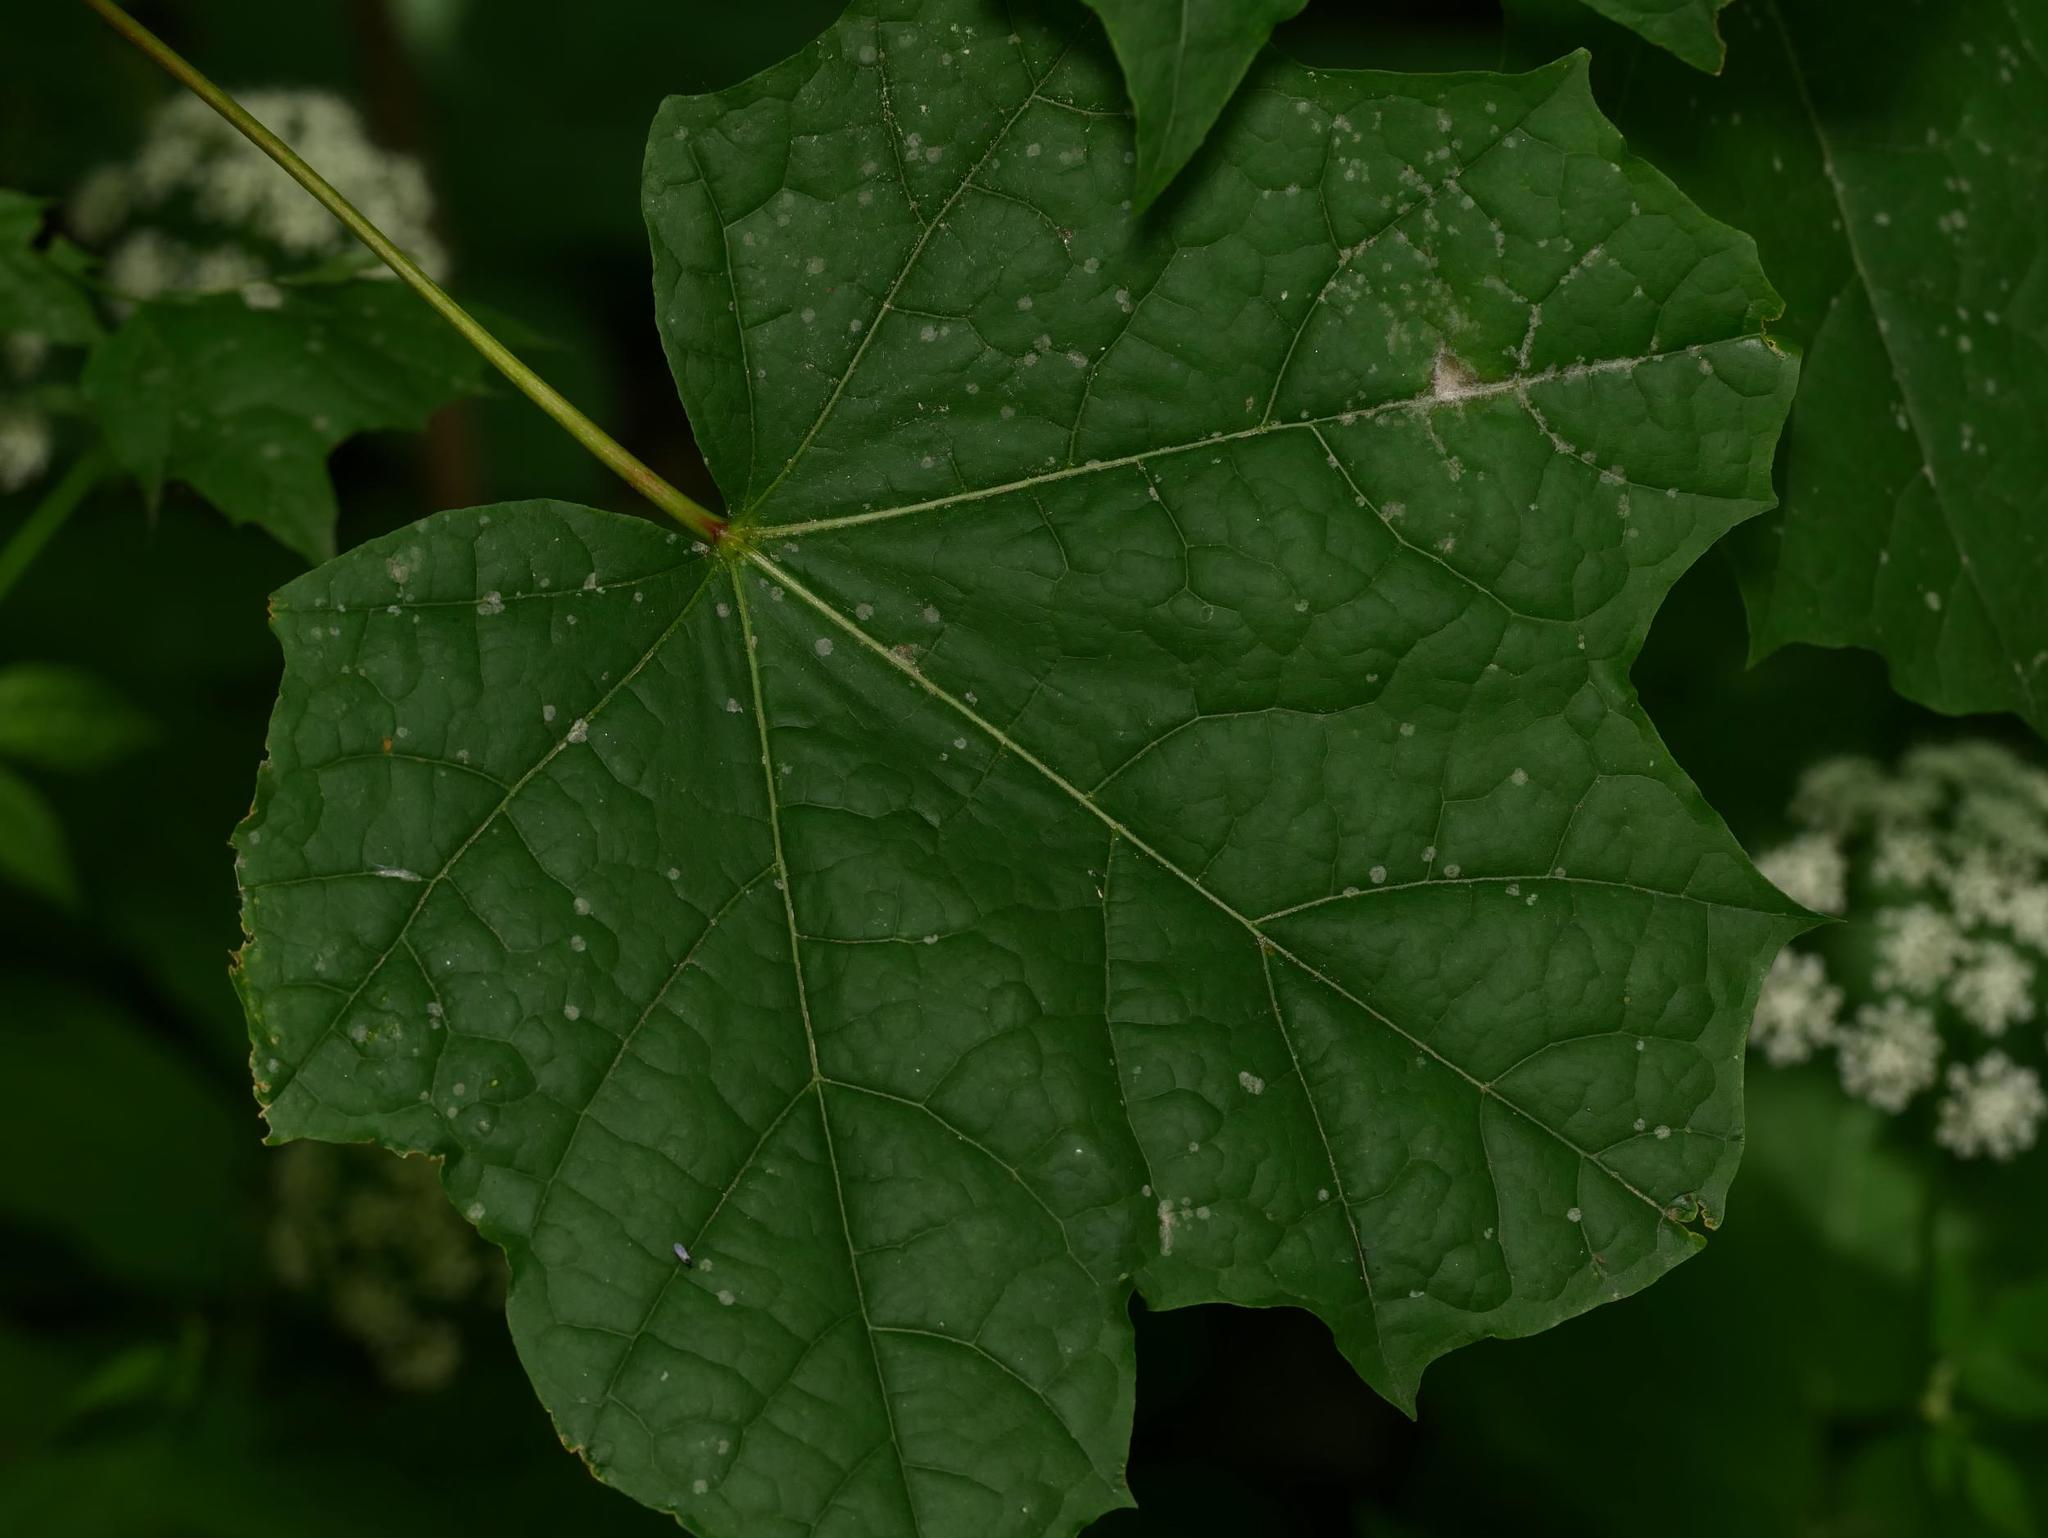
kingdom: Plantae
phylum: Tracheophyta
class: Magnoliopsida
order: Sapindales
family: Sapindaceae
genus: Acer
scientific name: Acer platanoides
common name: Norway maple
